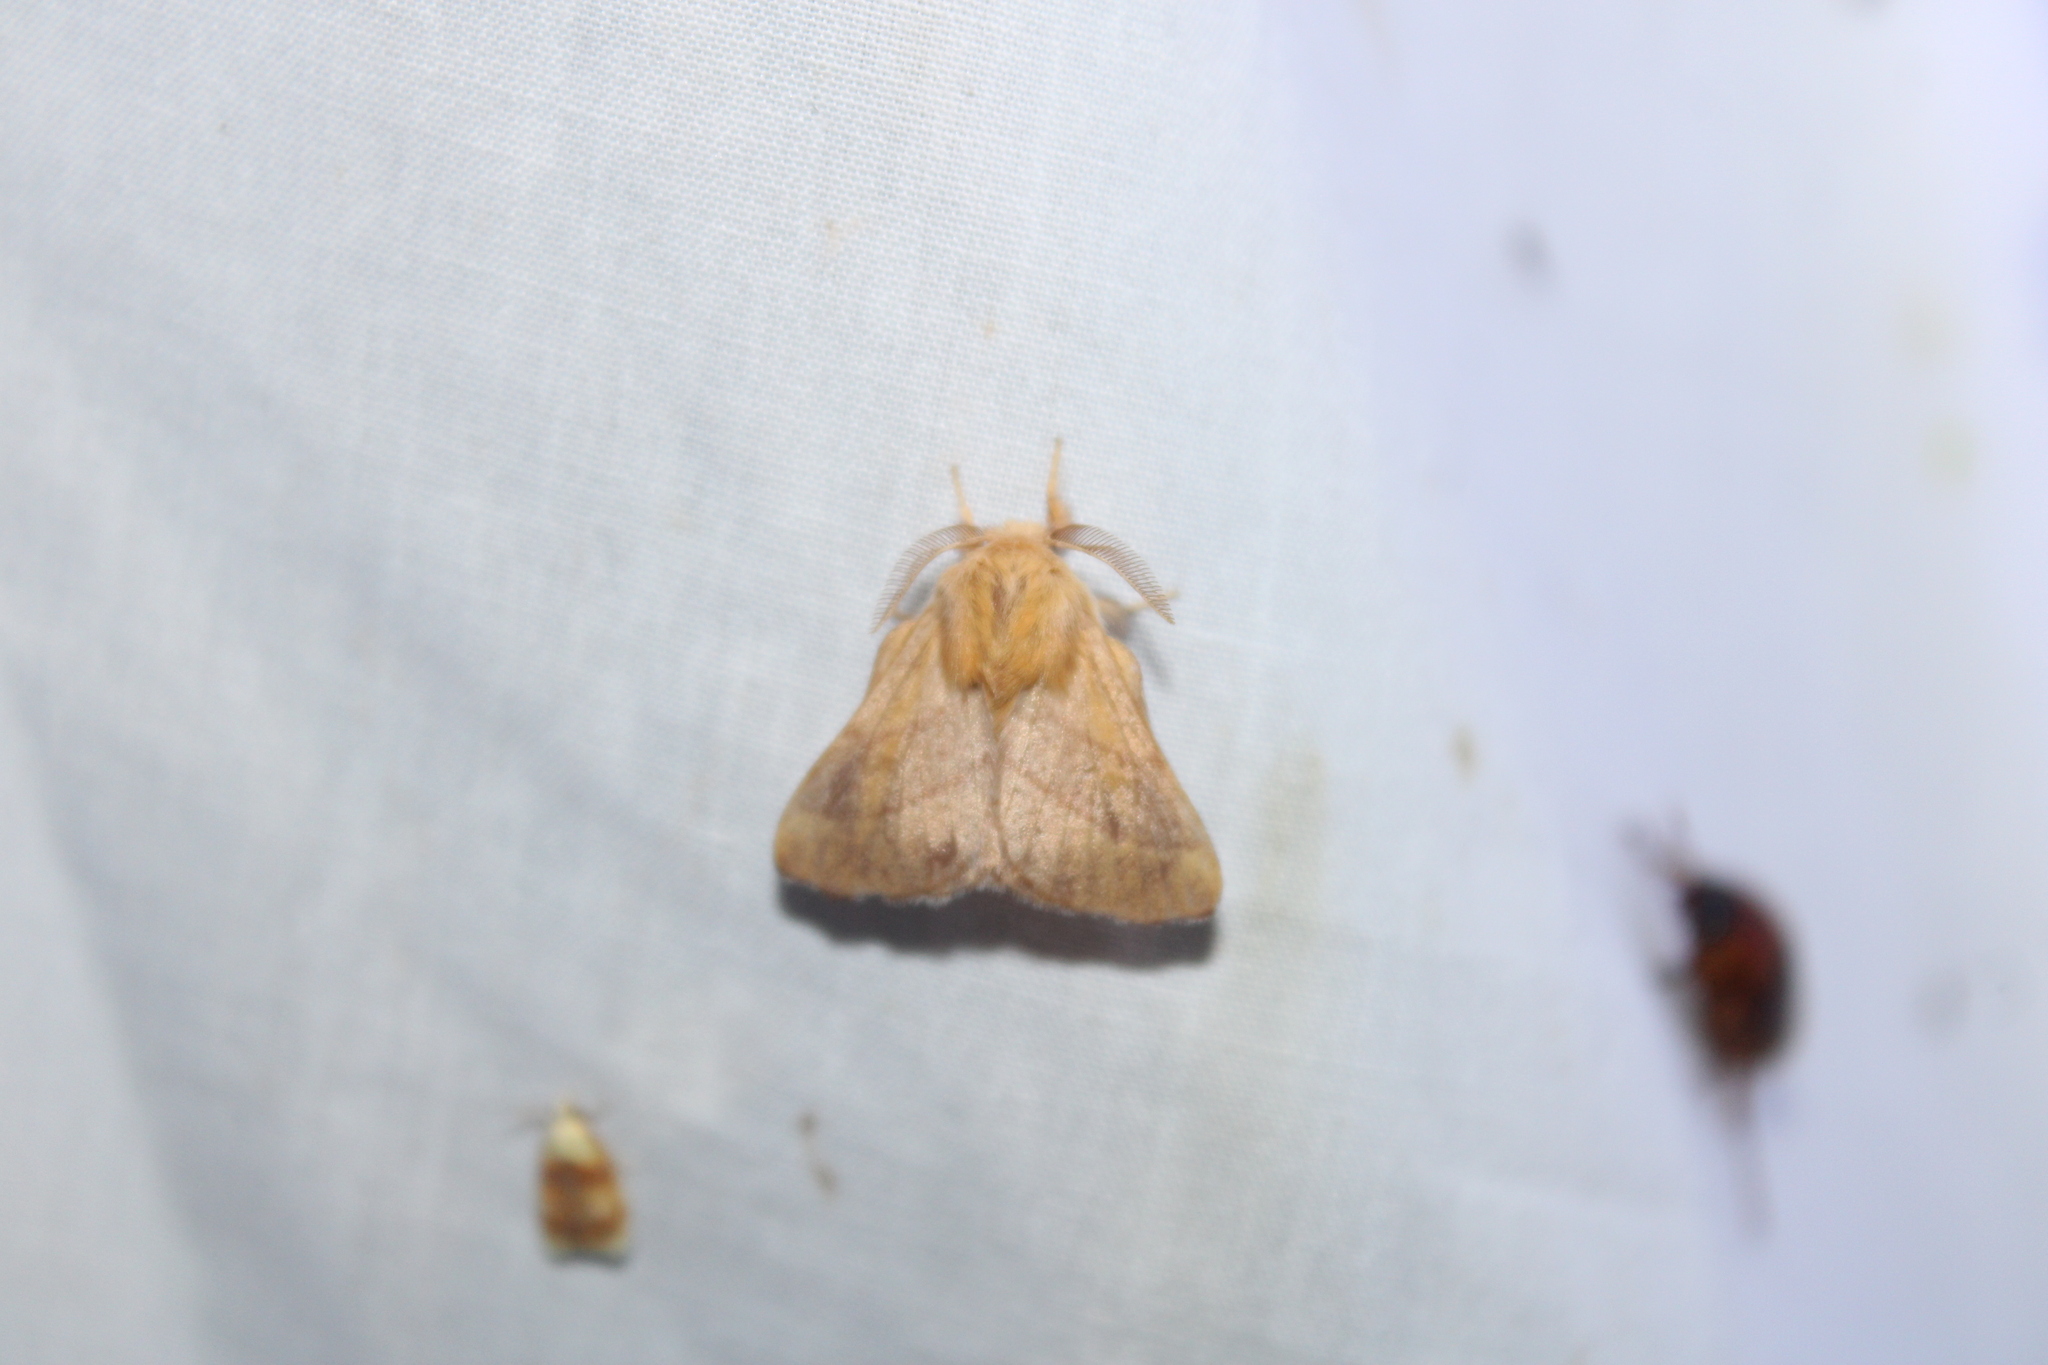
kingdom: Animalia
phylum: Arthropoda
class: Insecta
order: Lepidoptera
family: Lasiocampidae
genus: Malacosoma
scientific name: Malacosoma disstria
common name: Forest tent caterpillar
